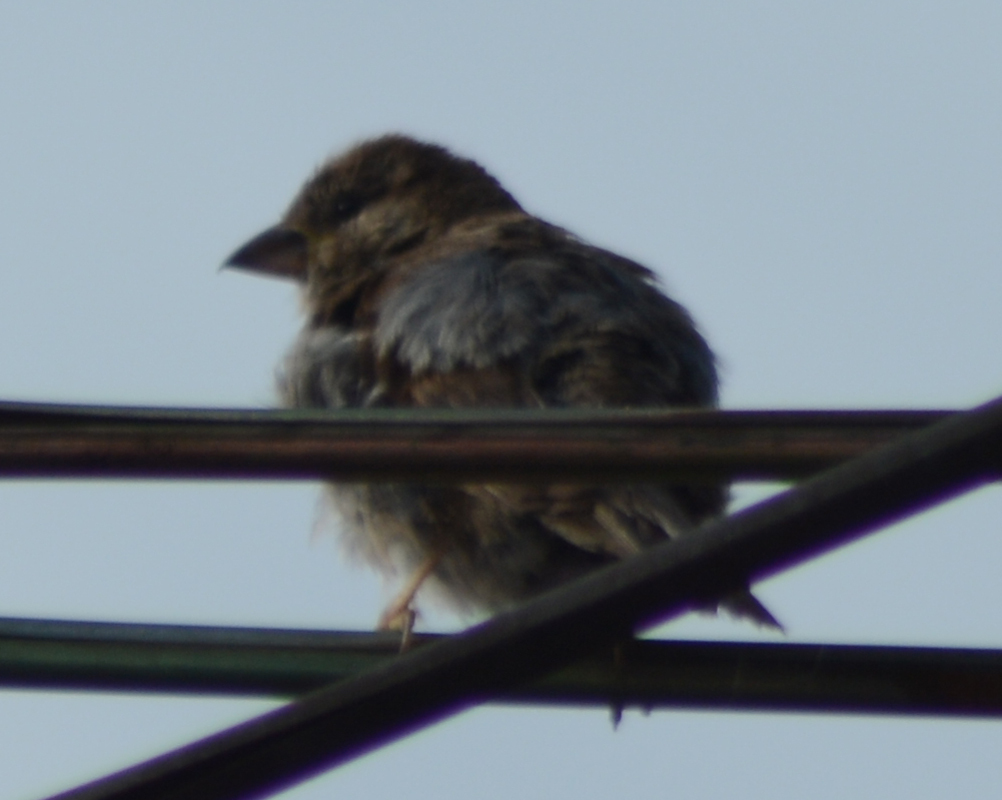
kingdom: Animalia
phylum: Chordata
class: Aves
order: Passeriformes
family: Passeridae
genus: Passer
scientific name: Passer domesticus
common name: House sparrow
